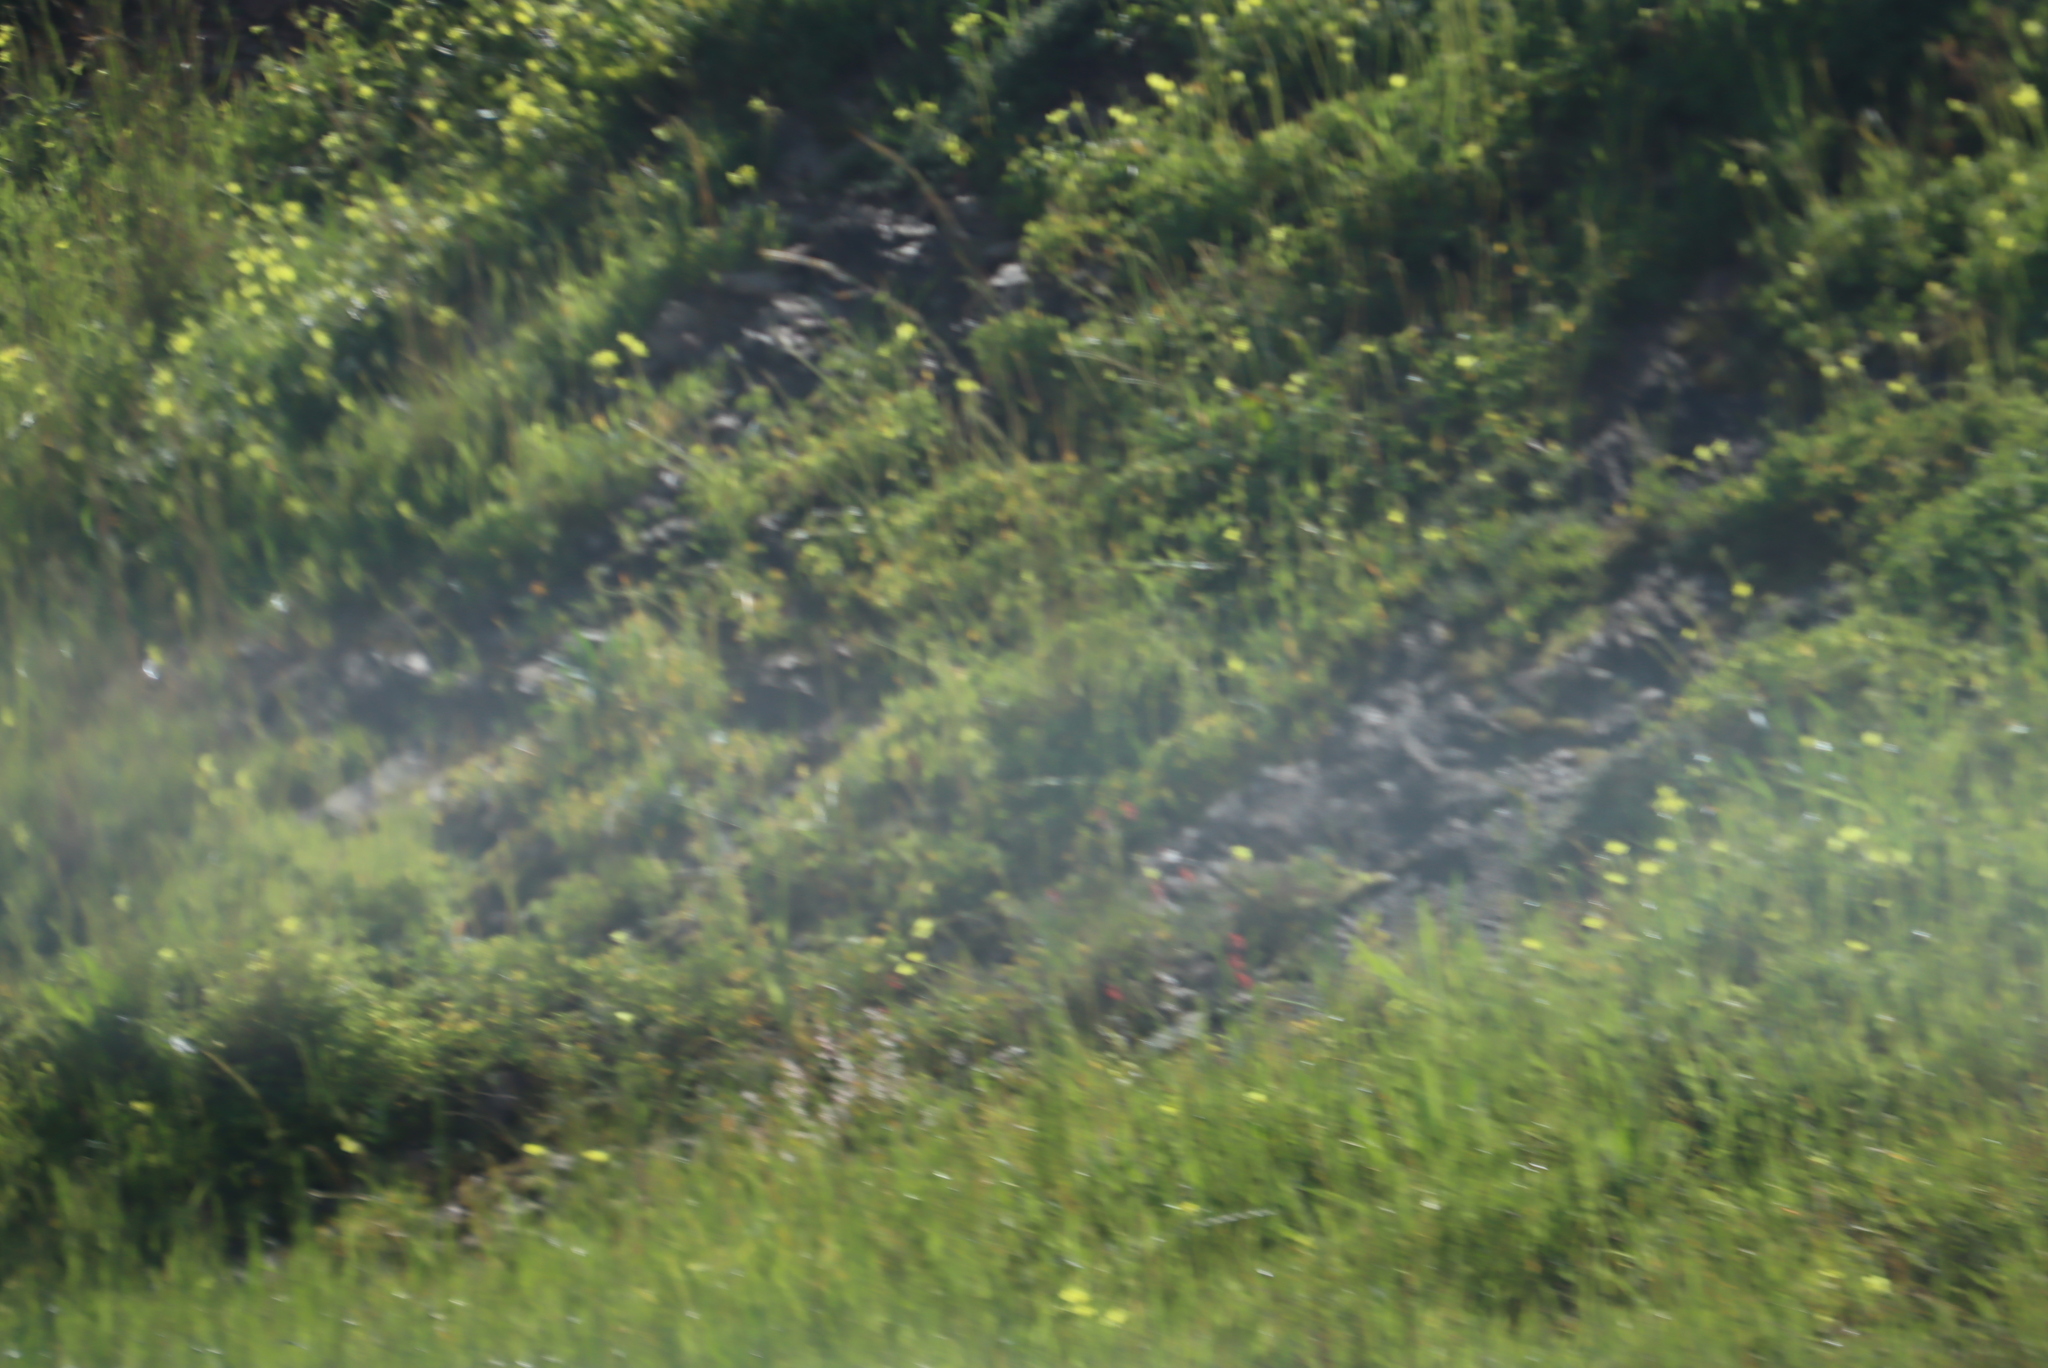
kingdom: Plantae
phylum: Tracheophyta
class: Magnoliopsida
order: Oxalidales
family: Oxalidaceae
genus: Oxalis
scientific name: Oxalis pes-caprae
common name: Bermuda-buttercup
